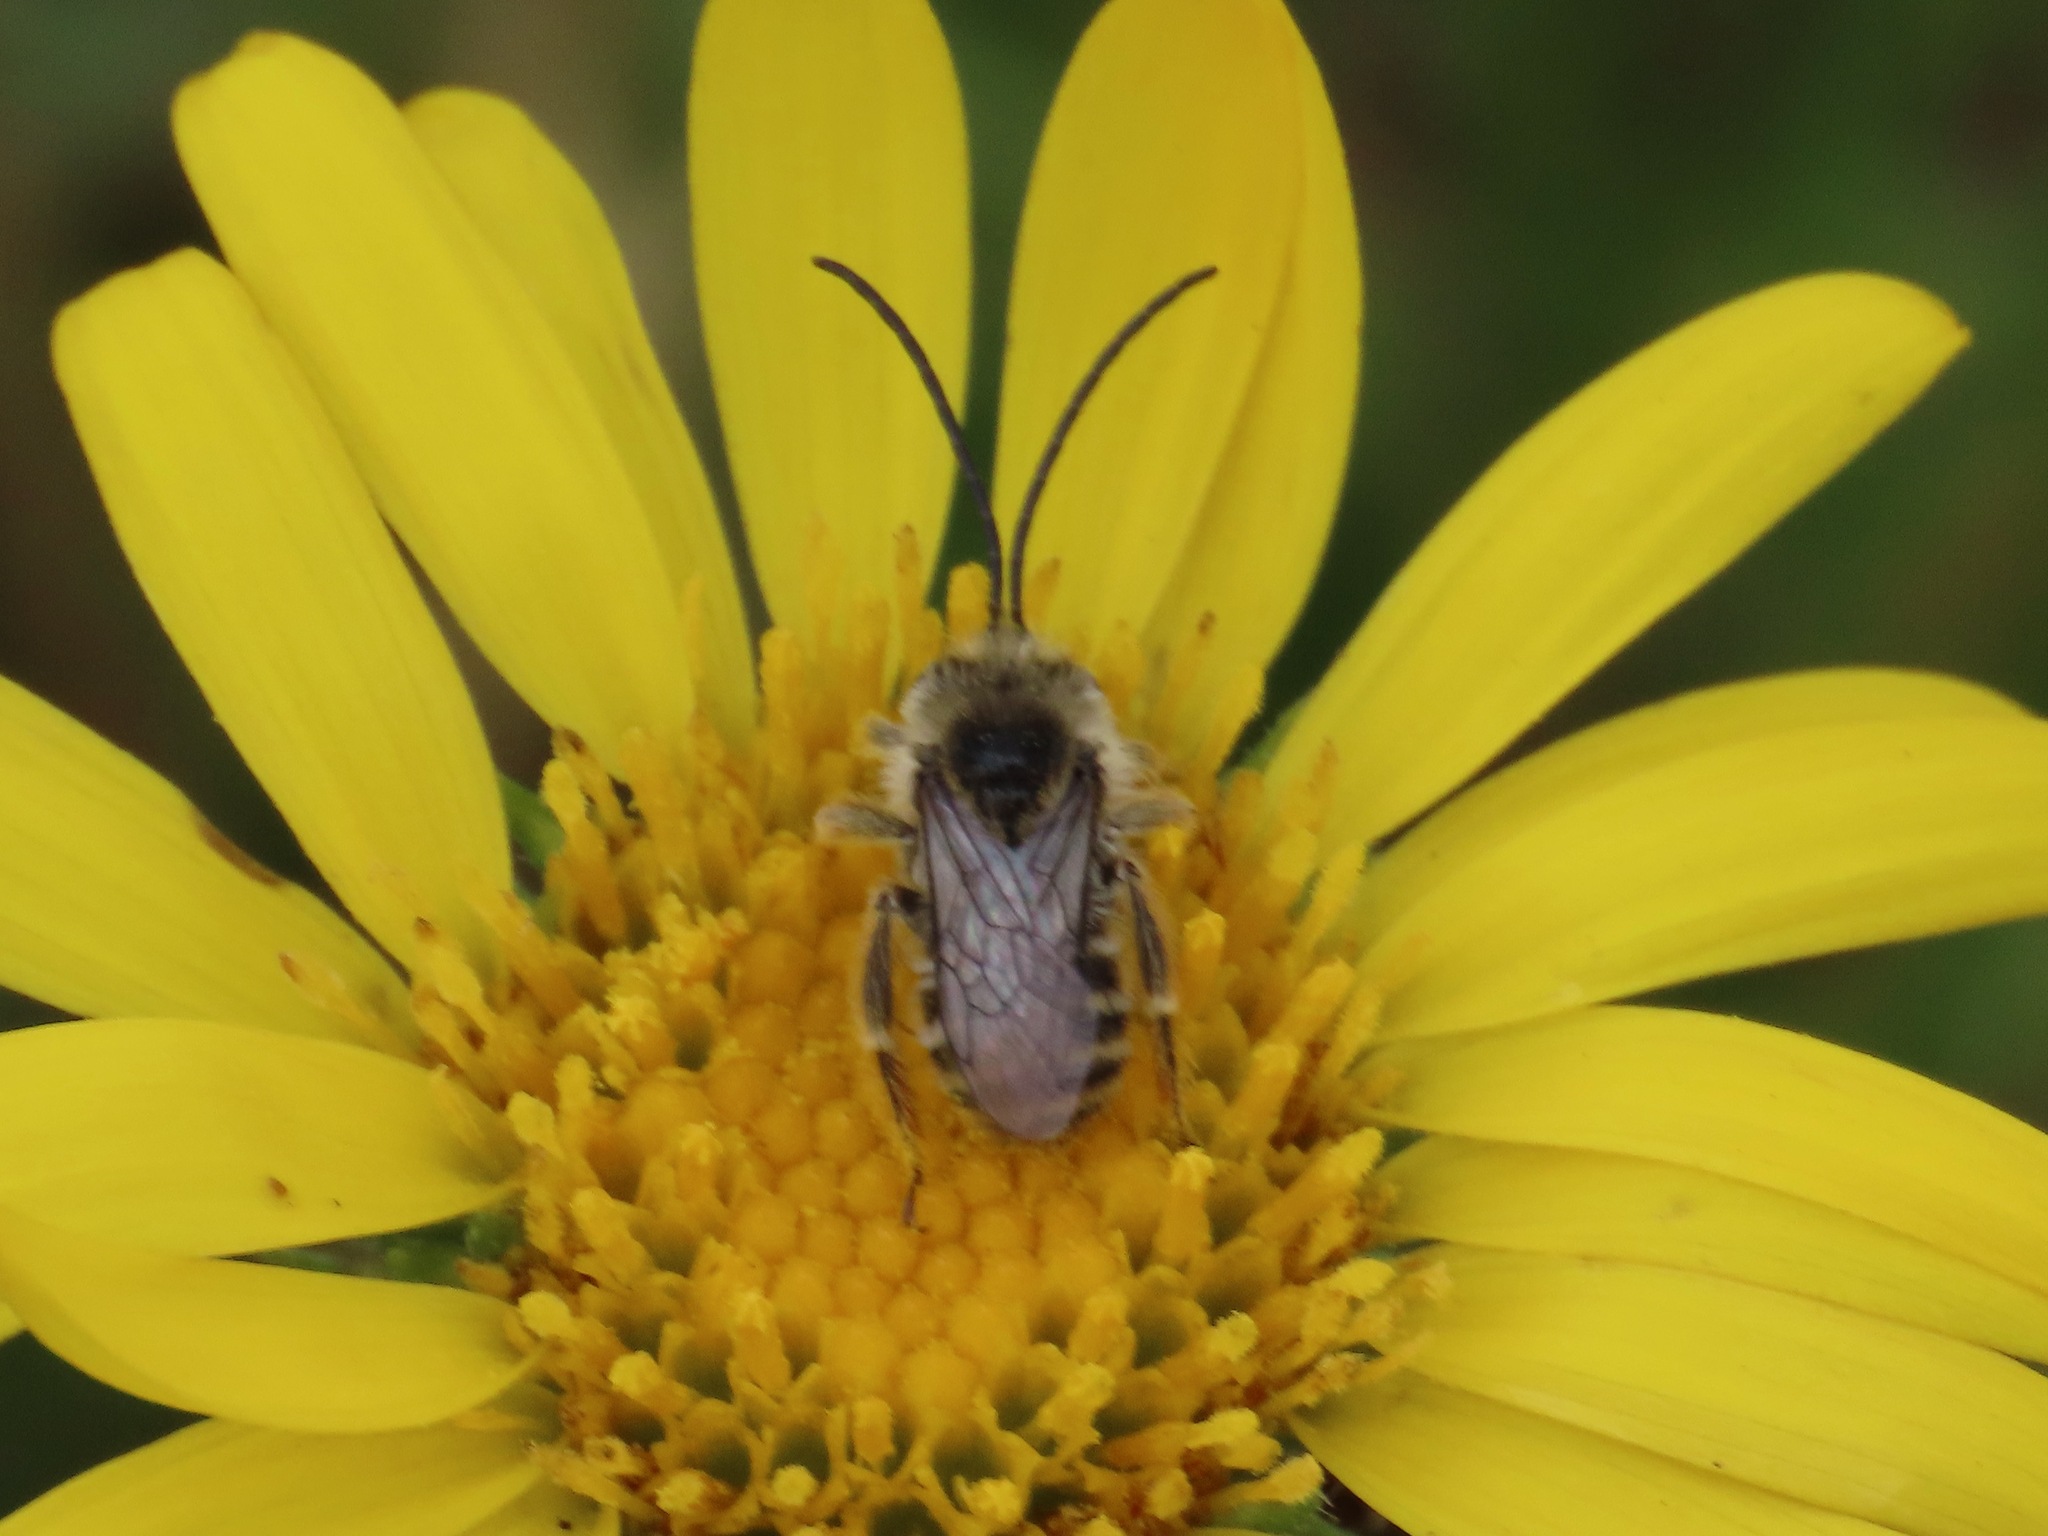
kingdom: Animalia
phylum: Arthropoda
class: Insecta
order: Hymenoptera
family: Apidae
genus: Melissodes
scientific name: Melissodes microstictus
